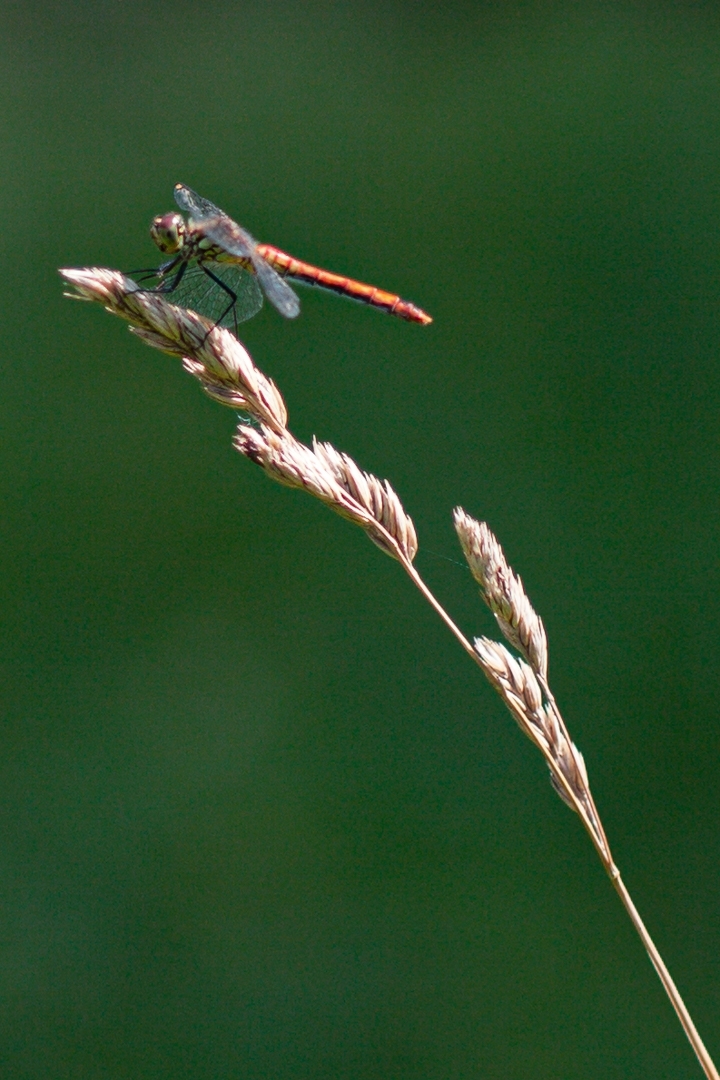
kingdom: Animalia
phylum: Arthropoda
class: Insecta
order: Odonata
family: Libellulidae
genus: Sympetrum
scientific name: Sympetrum sanguineum
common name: Ruddy darter
